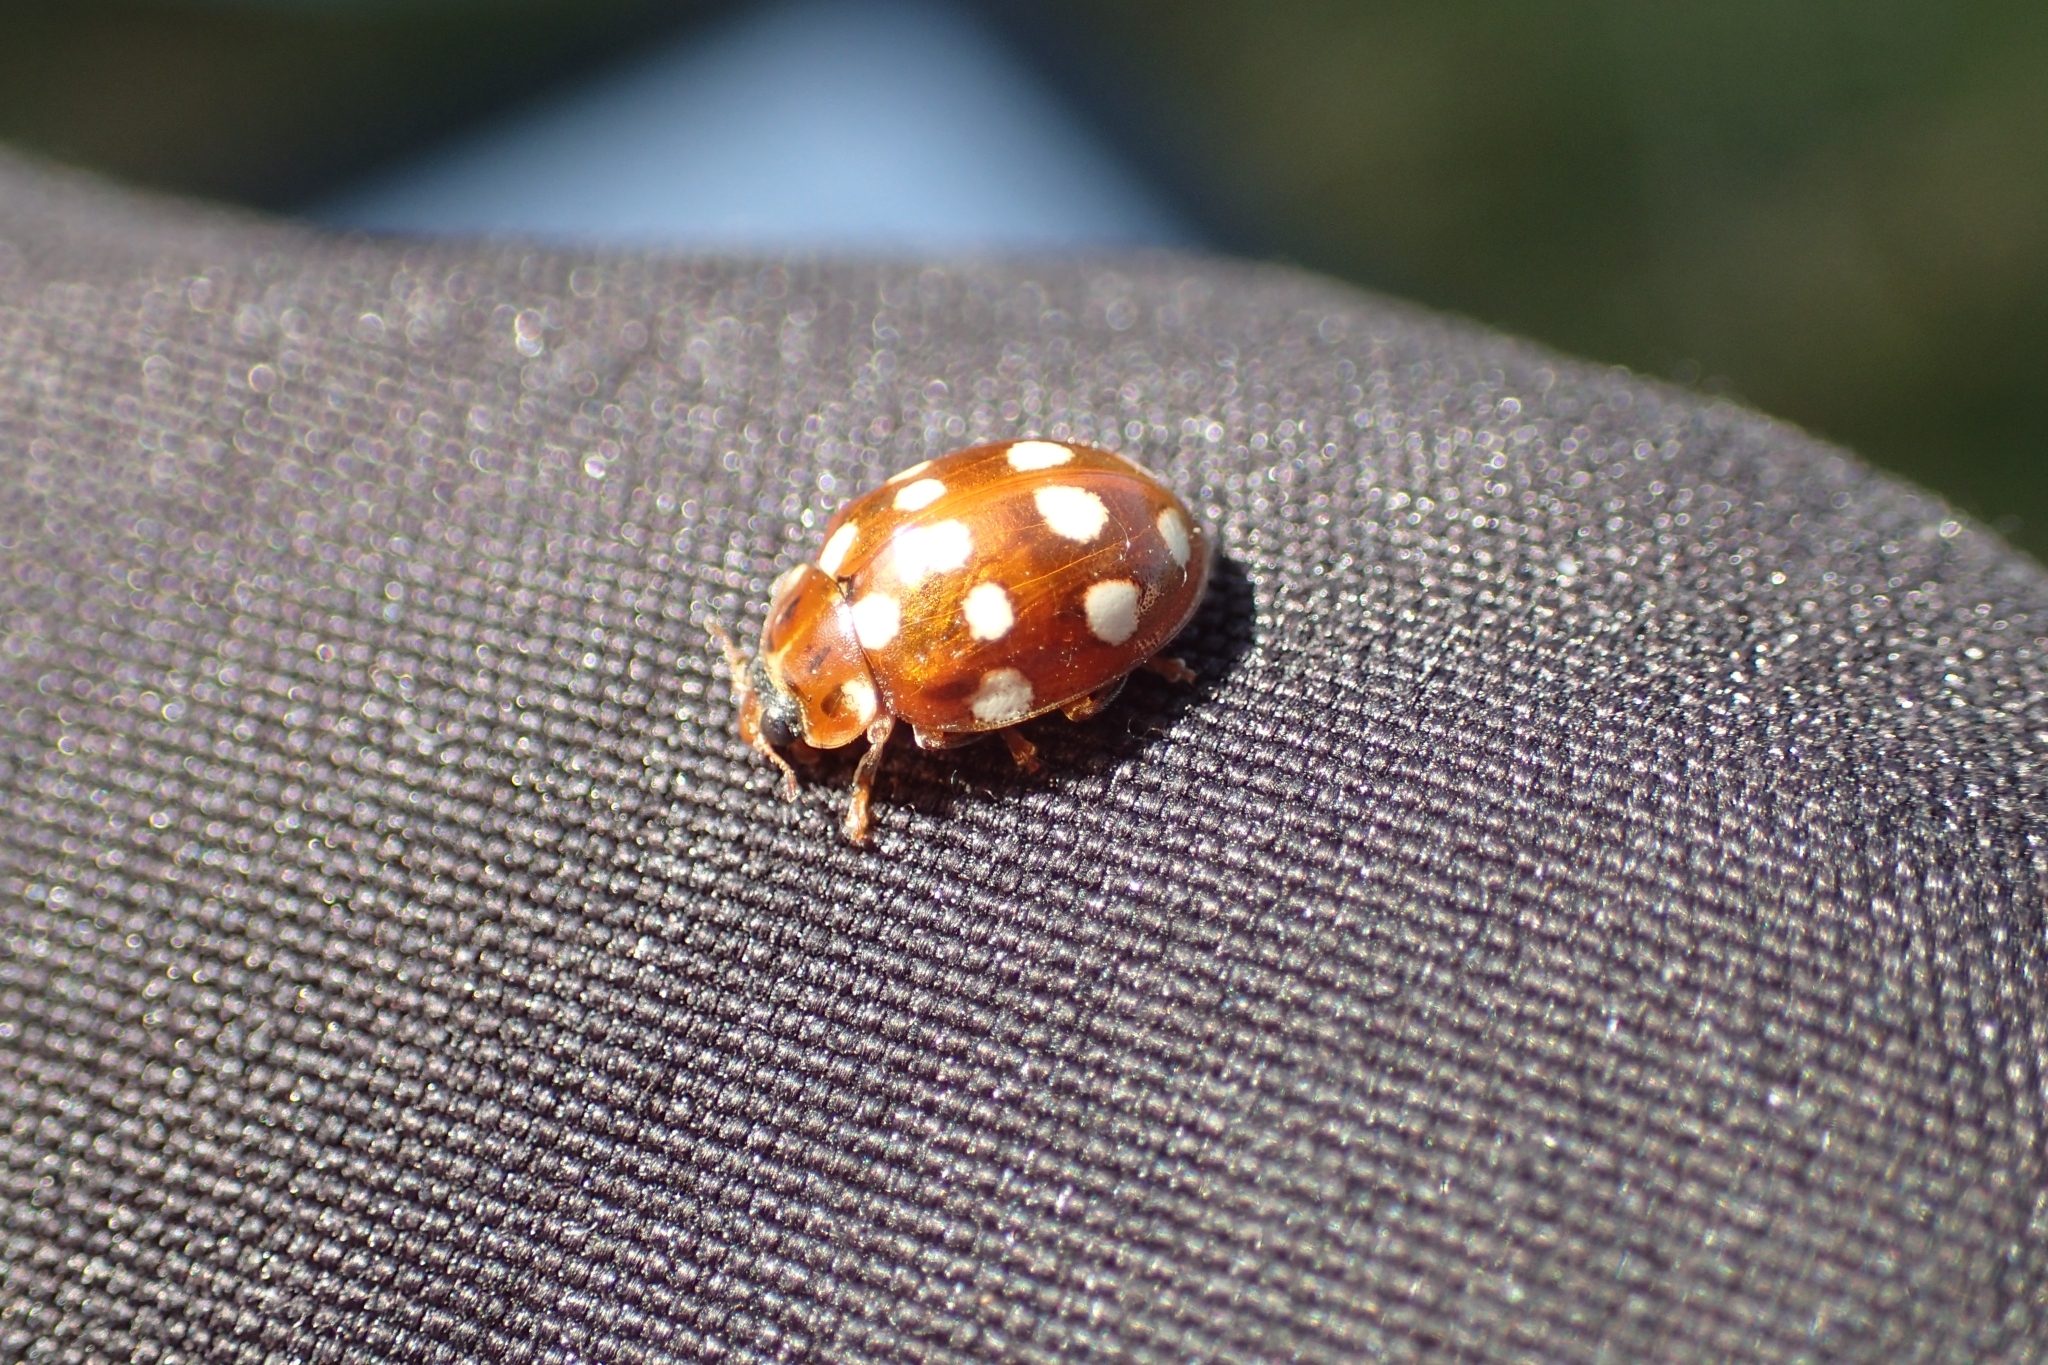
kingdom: Animalia
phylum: Arthropoda
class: Insecta
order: Coleoptera
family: Coccinellidae
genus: Calvia
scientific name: Calvia quatuordecimguttata
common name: Cream-spot ladybird
